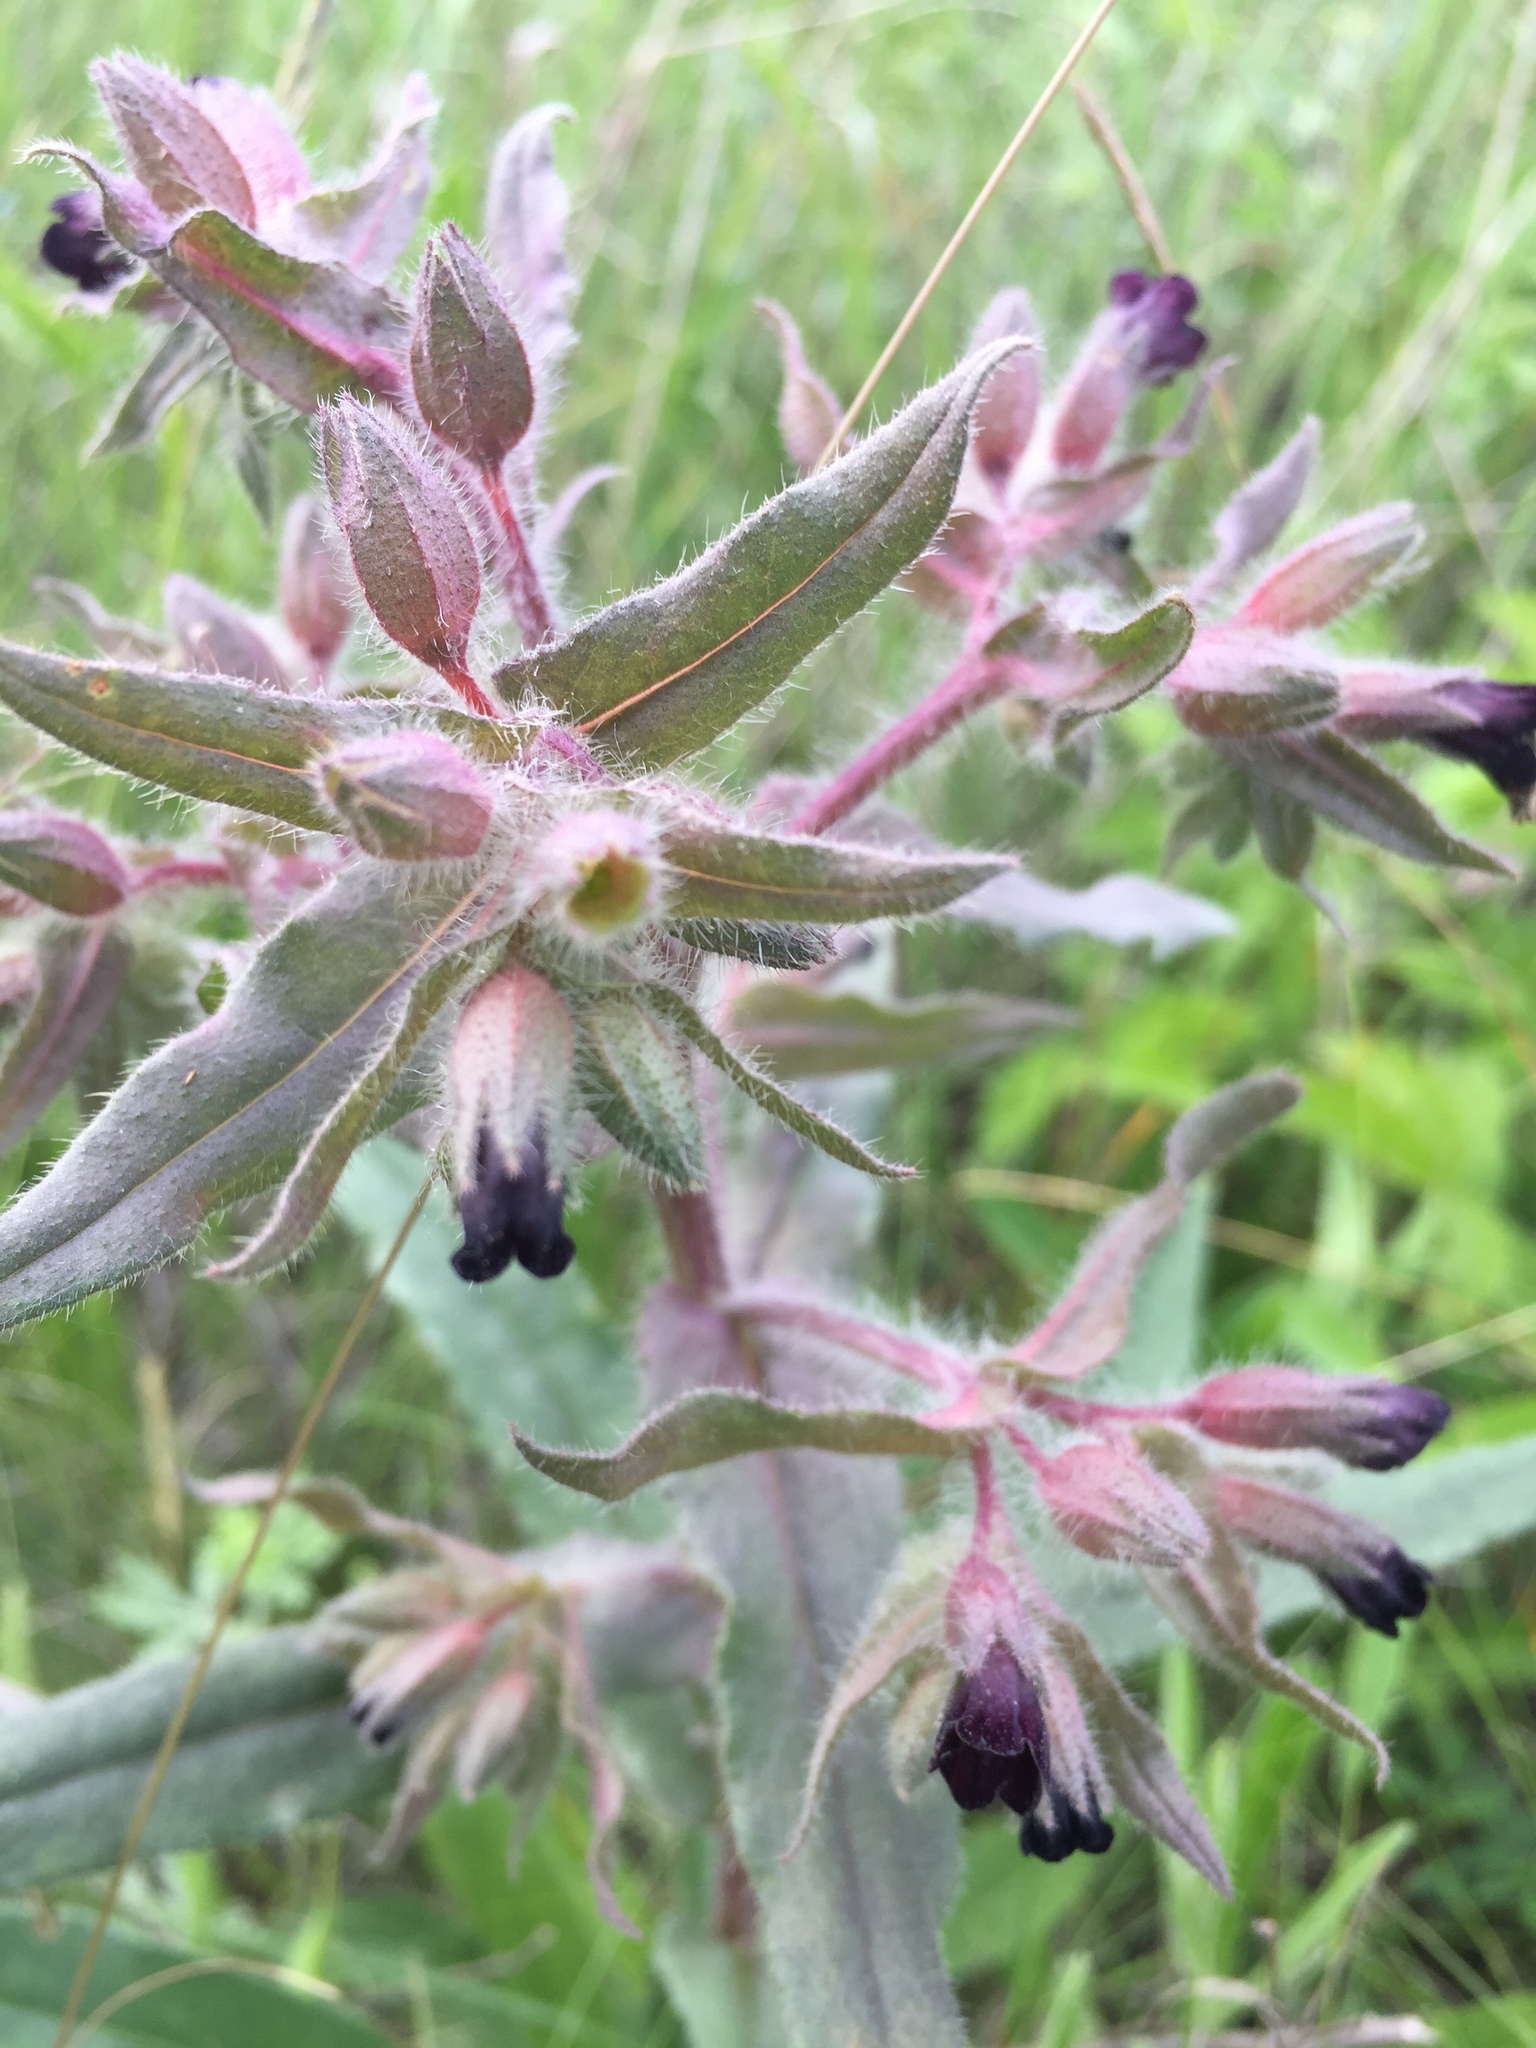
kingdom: Plantae
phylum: Tracheophyta
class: Magnoliopsida
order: Boraginales
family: Boraginaceae
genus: Nonea
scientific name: Nonea pulla
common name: Brown nonea
